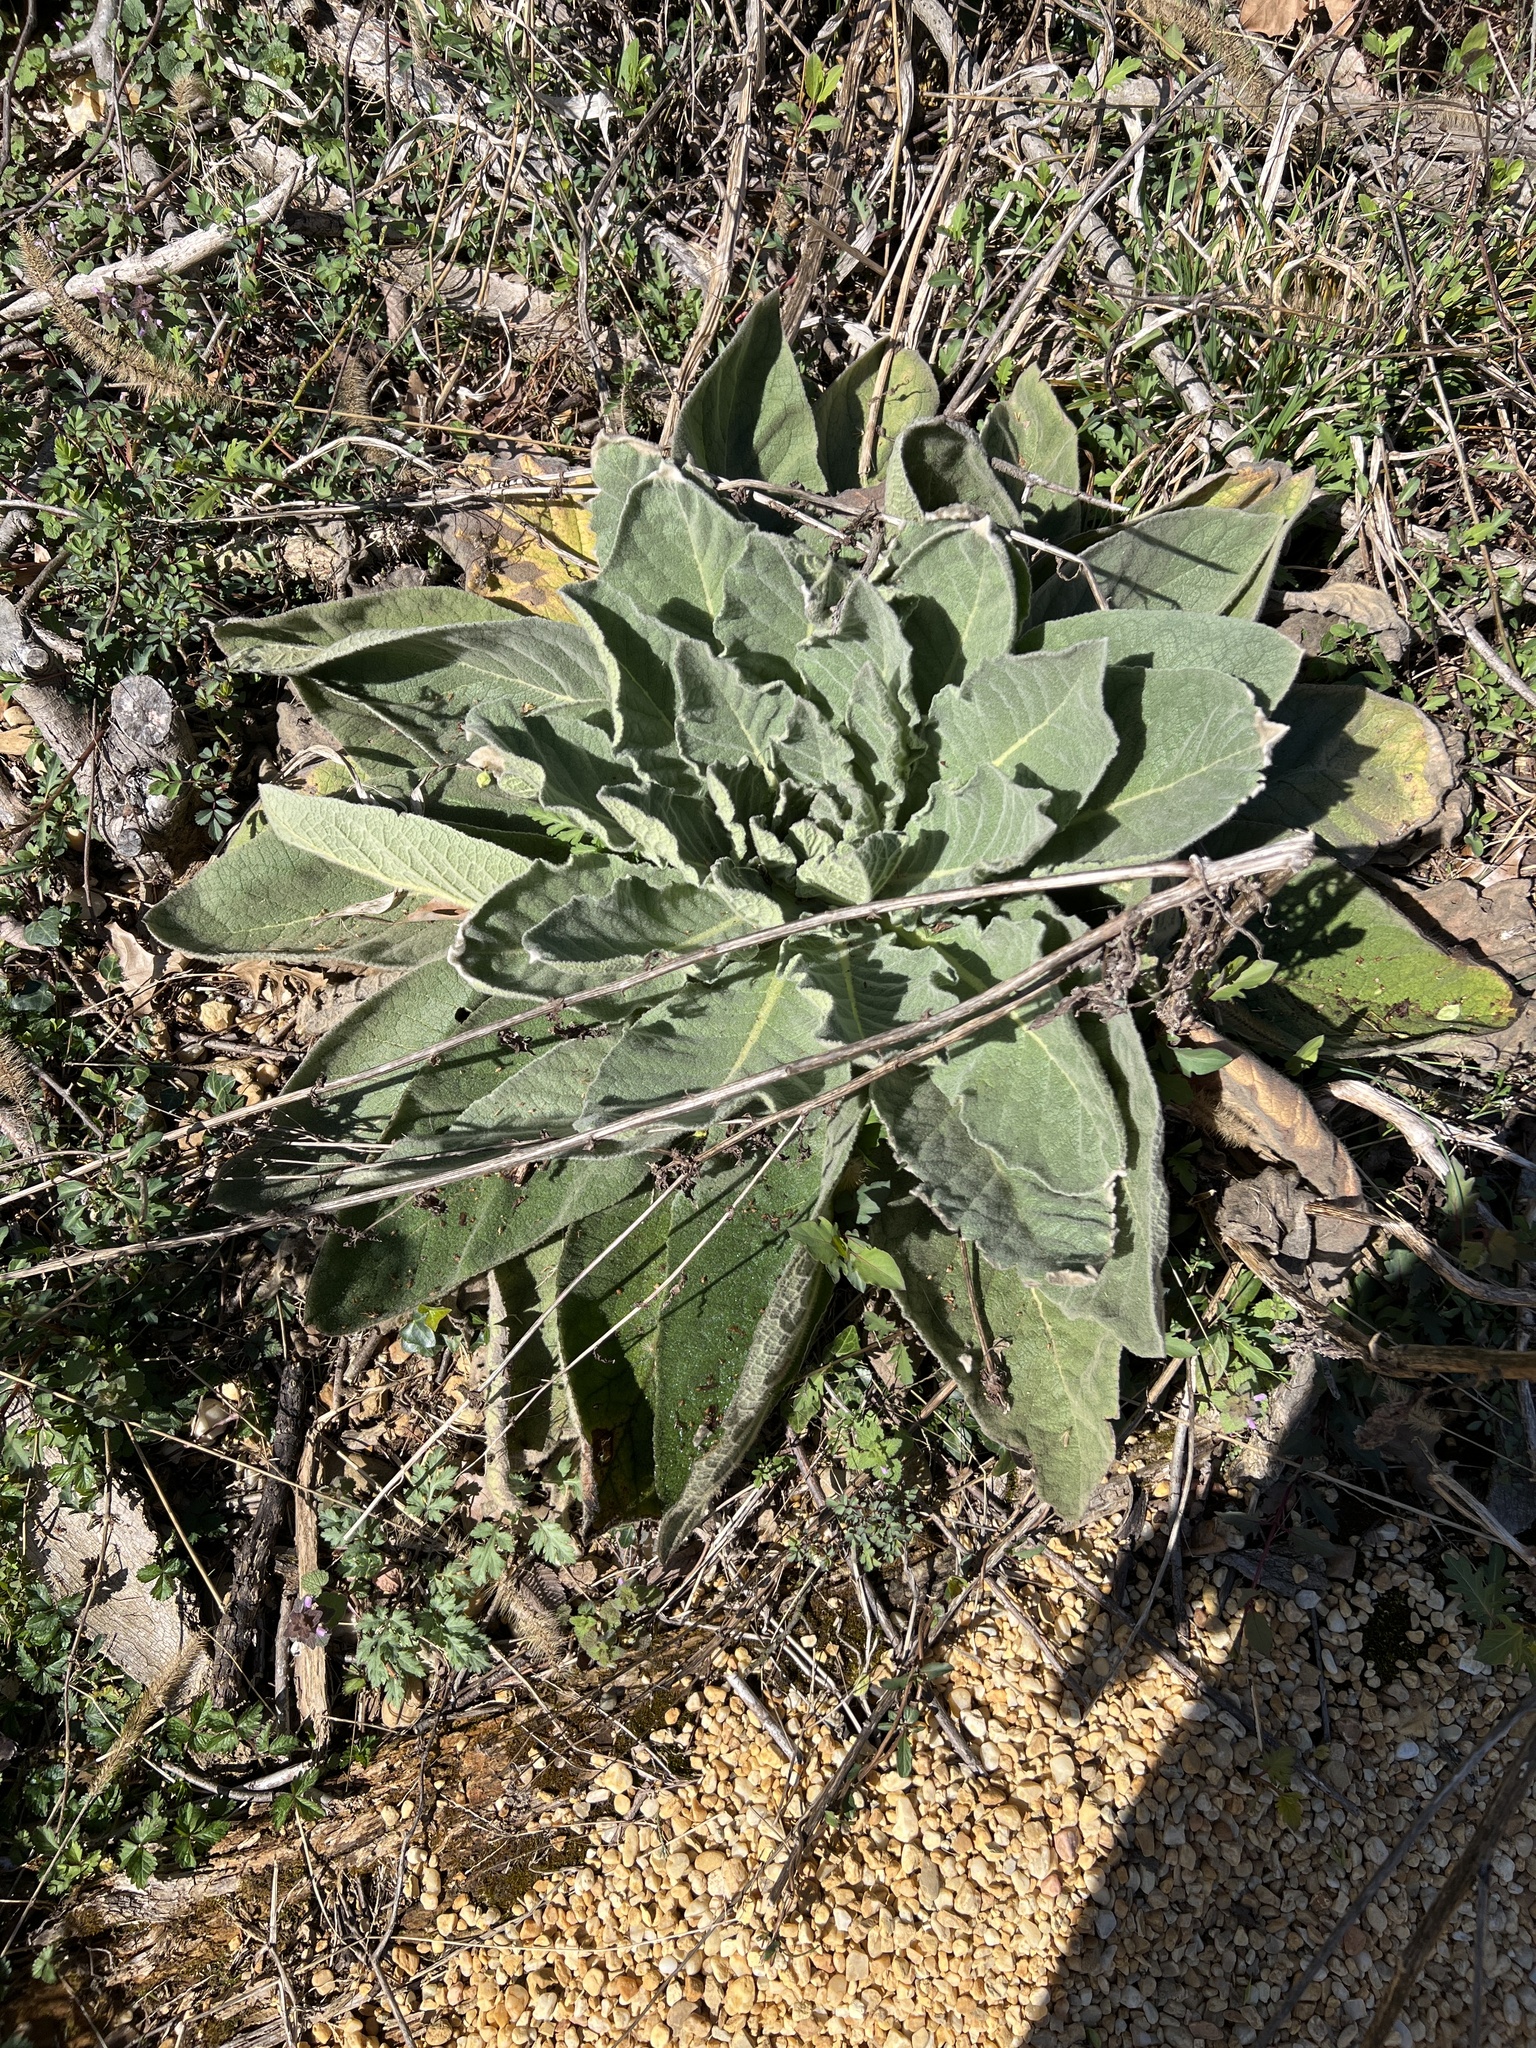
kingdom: Plantae
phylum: Tracheophyta
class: Magnoliopsida
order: Lamiales
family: Scrophulariaceae
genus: Verbascum
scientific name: Verbascum thapsus
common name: Common mullein
